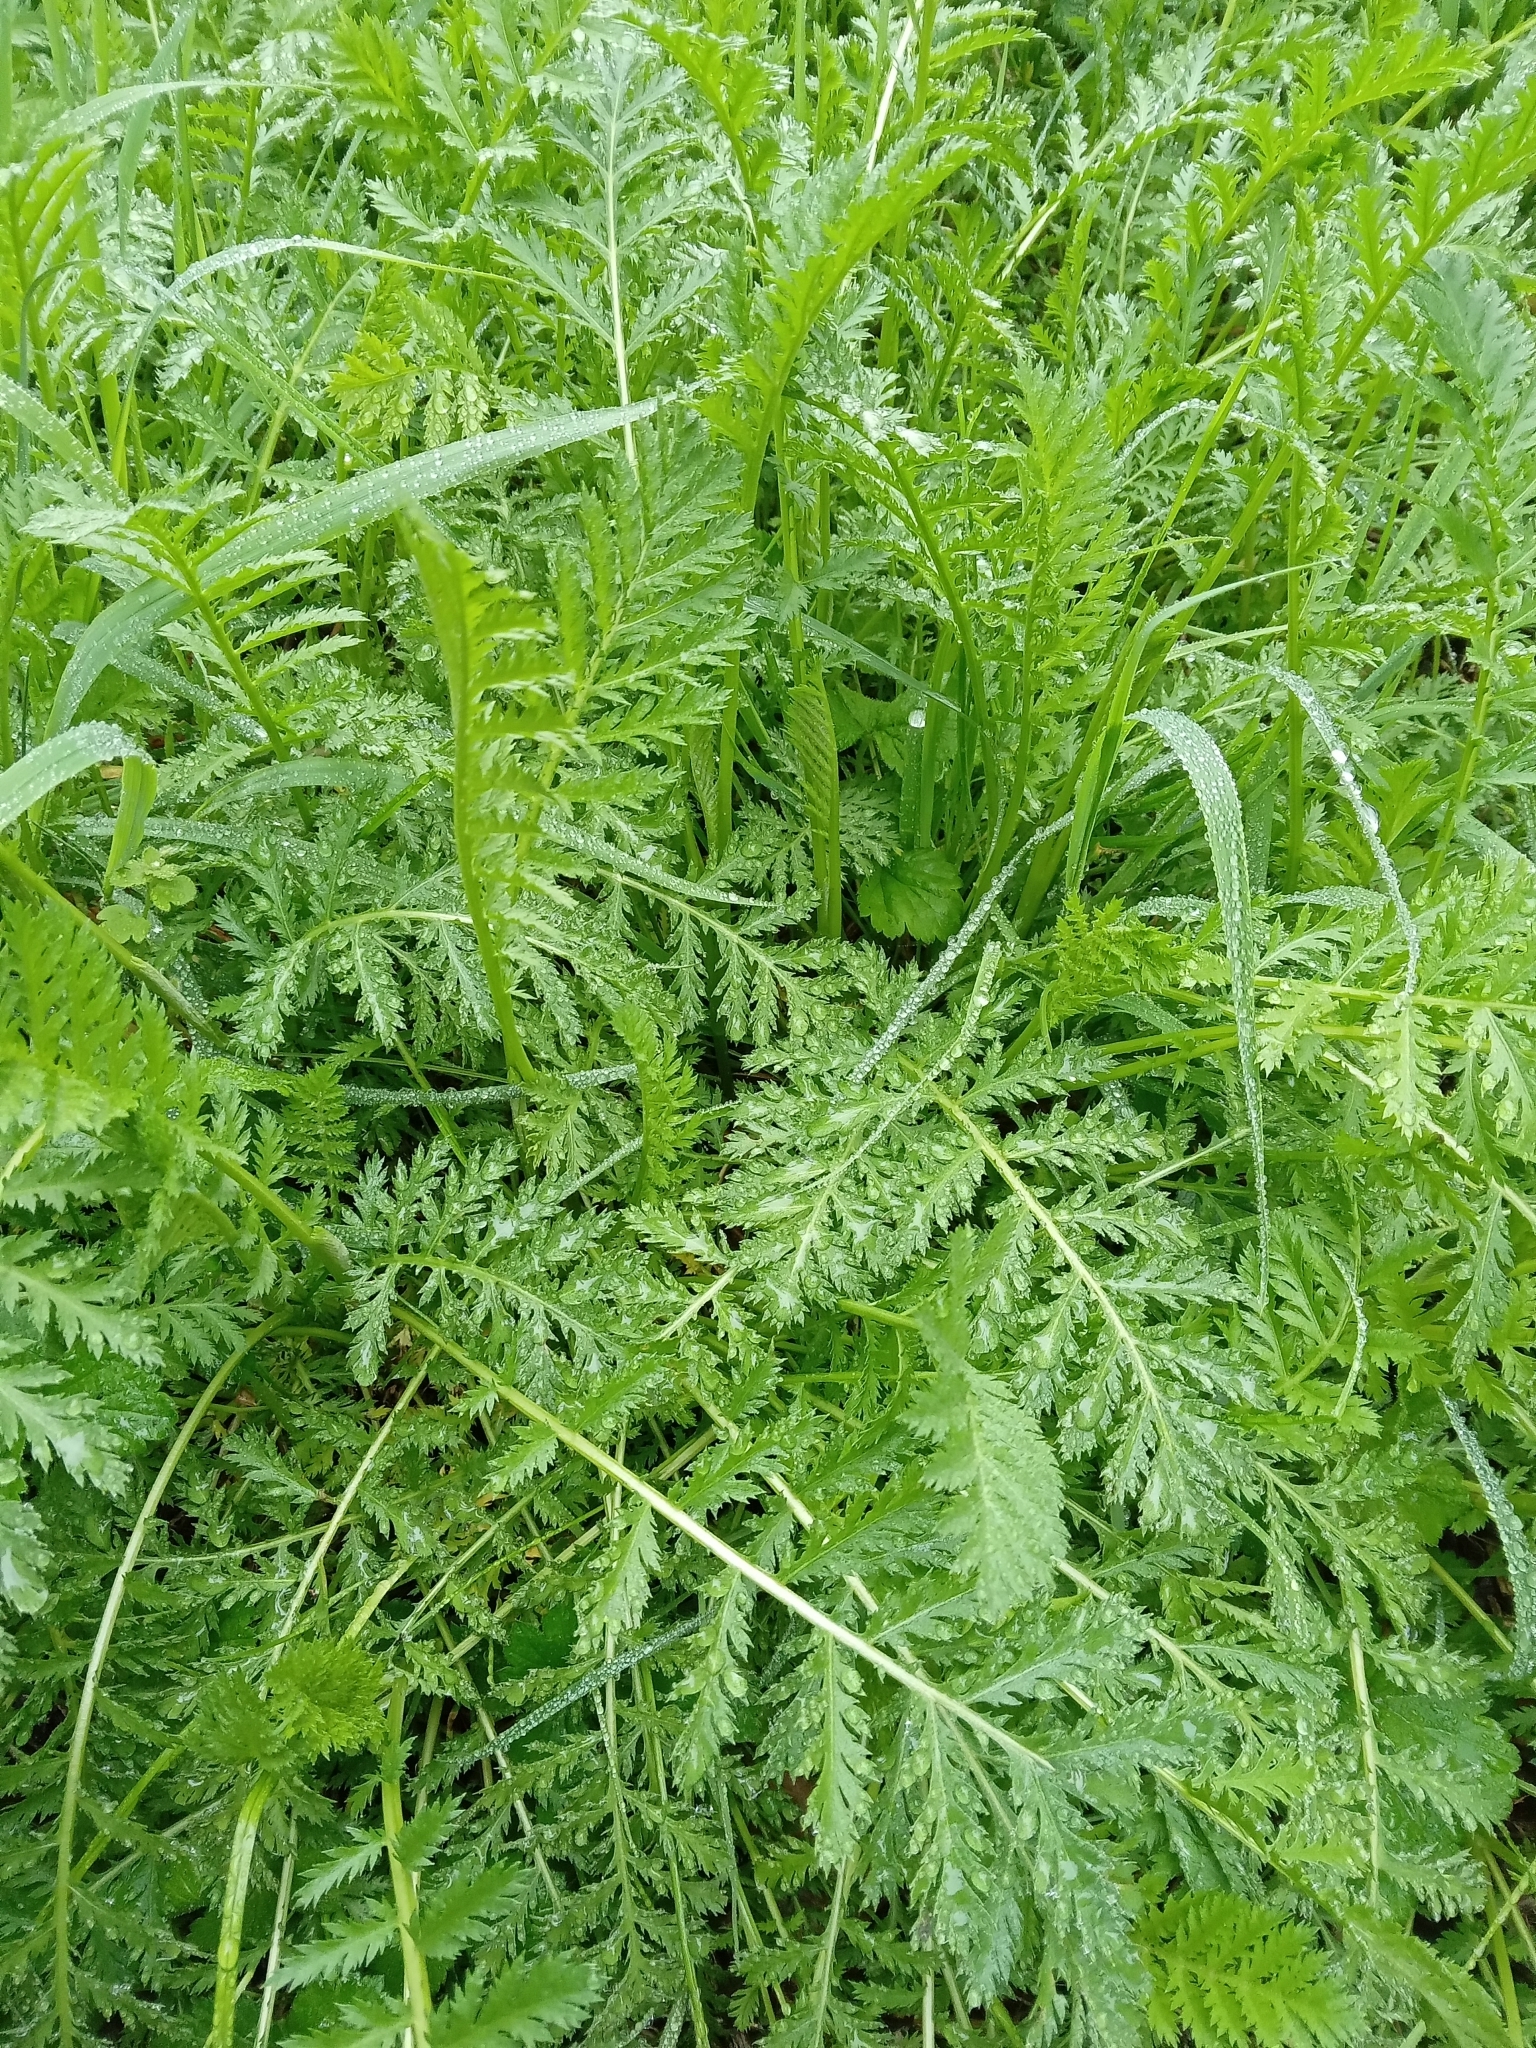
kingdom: Plantae
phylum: Tracheophyta
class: Magnoliopsida
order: Asterales
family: Asteraceae
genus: Tanacetum
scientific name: Tanacetum vulgare
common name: Common tansy
